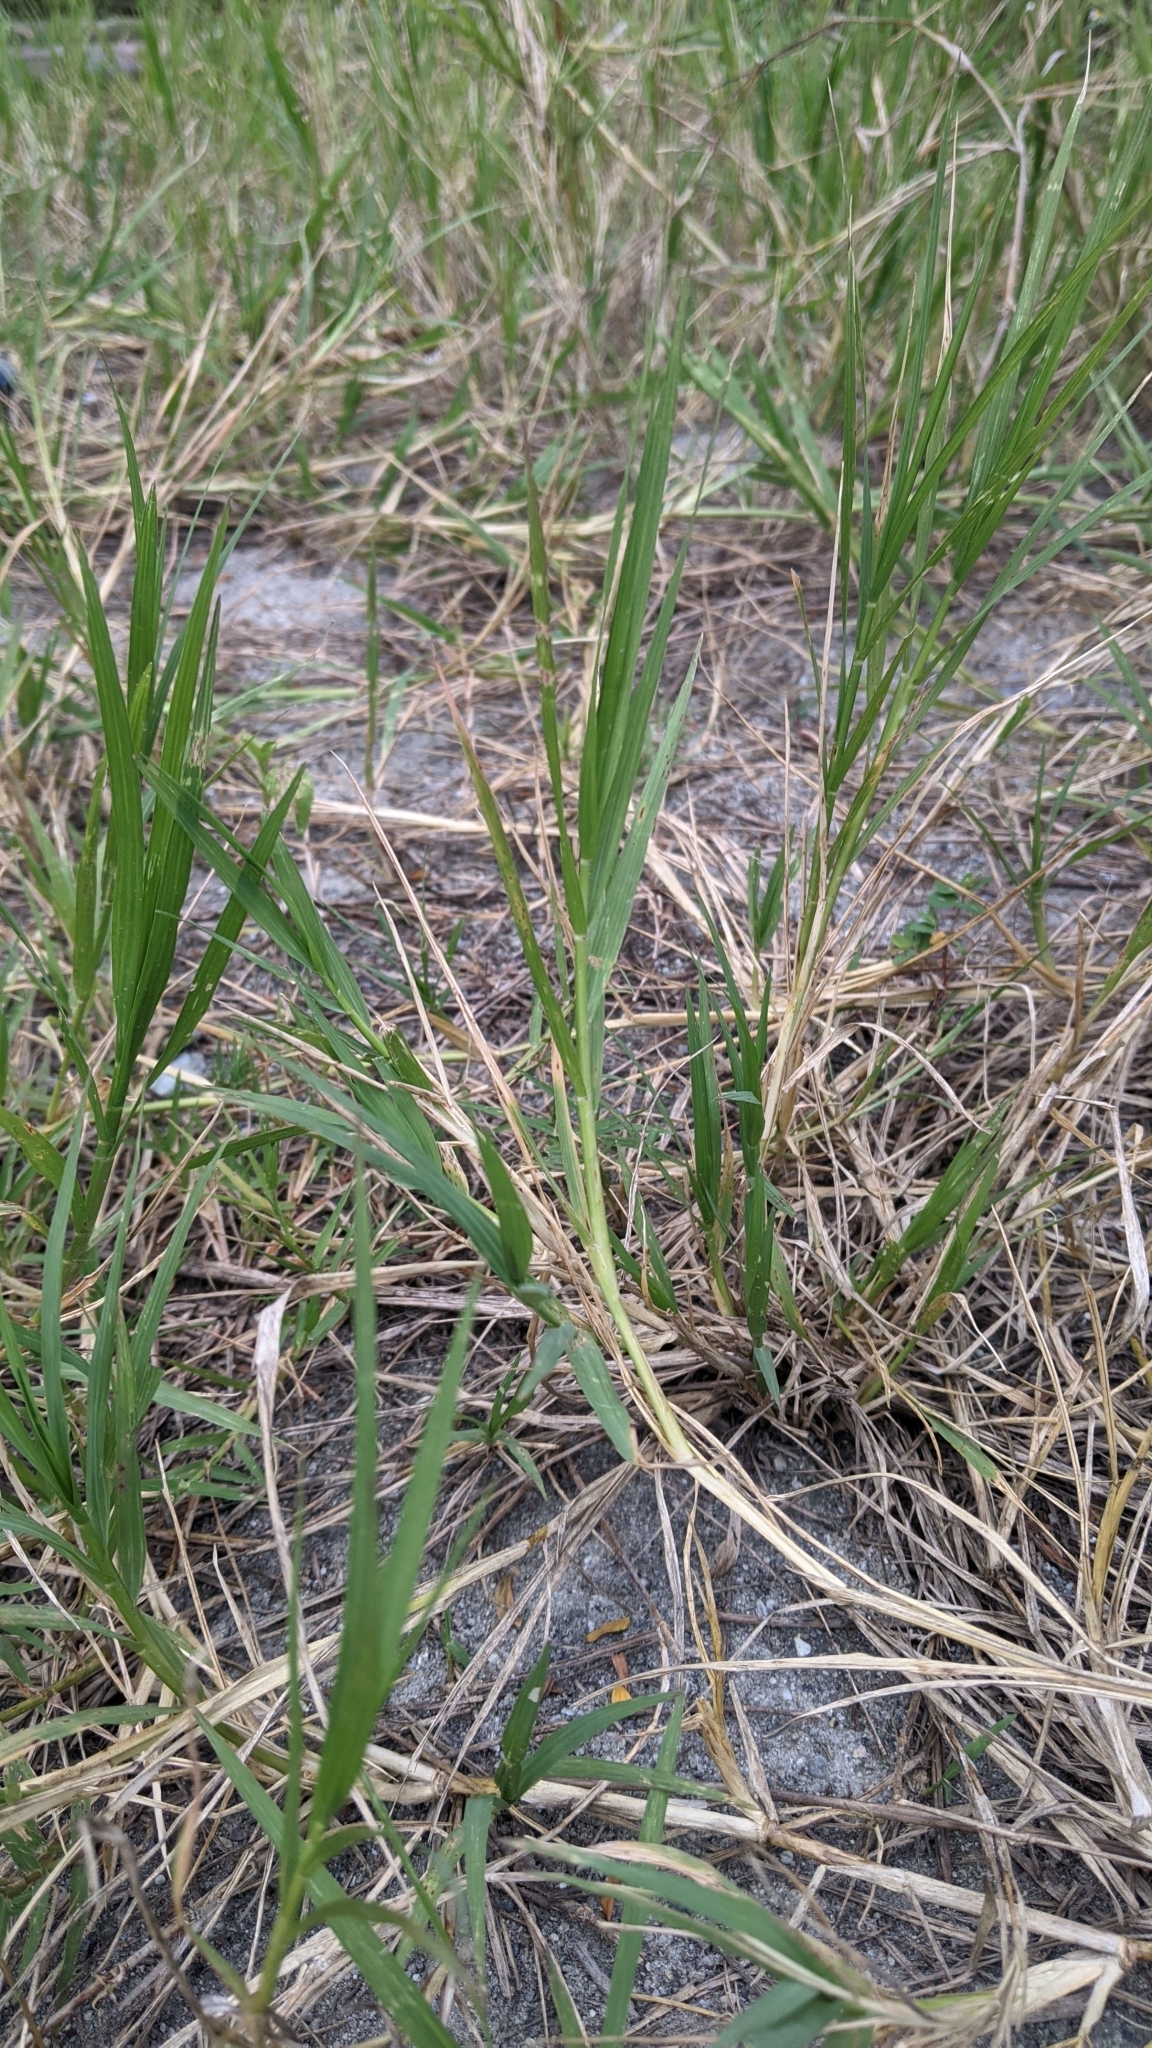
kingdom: Plantae
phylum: Tracheophyta
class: Liliopsida
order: Poales
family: Poaceae
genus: Cynodon
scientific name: Cynodon nlemfuensis
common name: African bermudagrass
